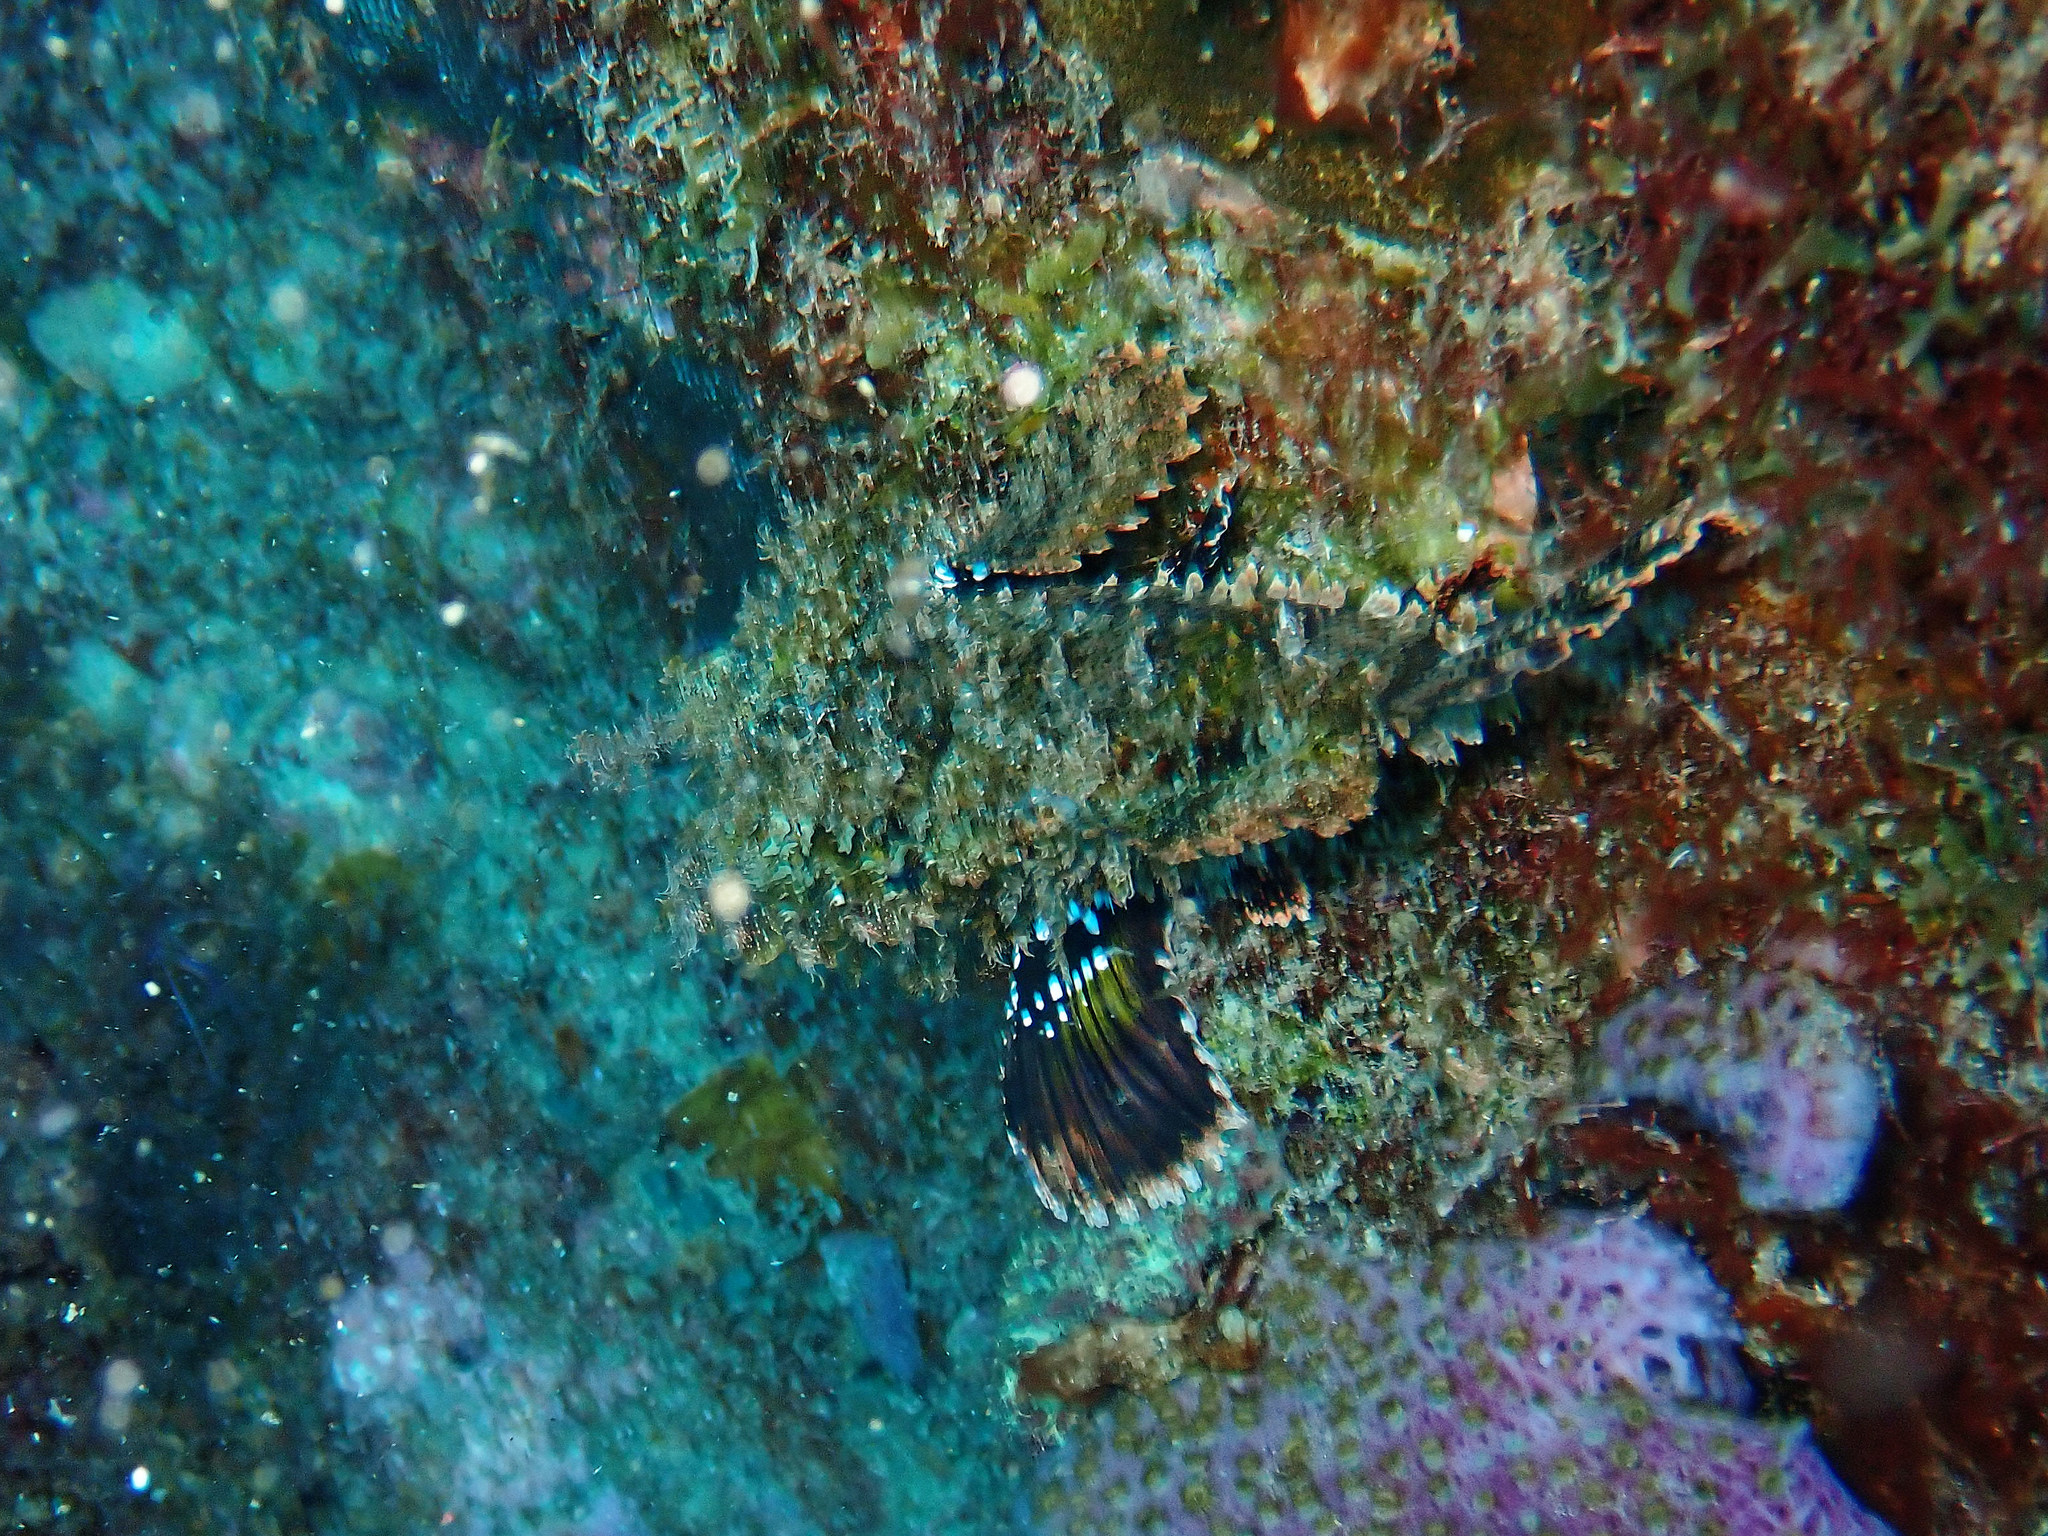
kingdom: Animalia
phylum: Chordata
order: Scorpaeniformes
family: Scorpaenidae
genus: Scorpaena
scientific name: Scorpaena plumieri
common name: Spotted scorpionfish
